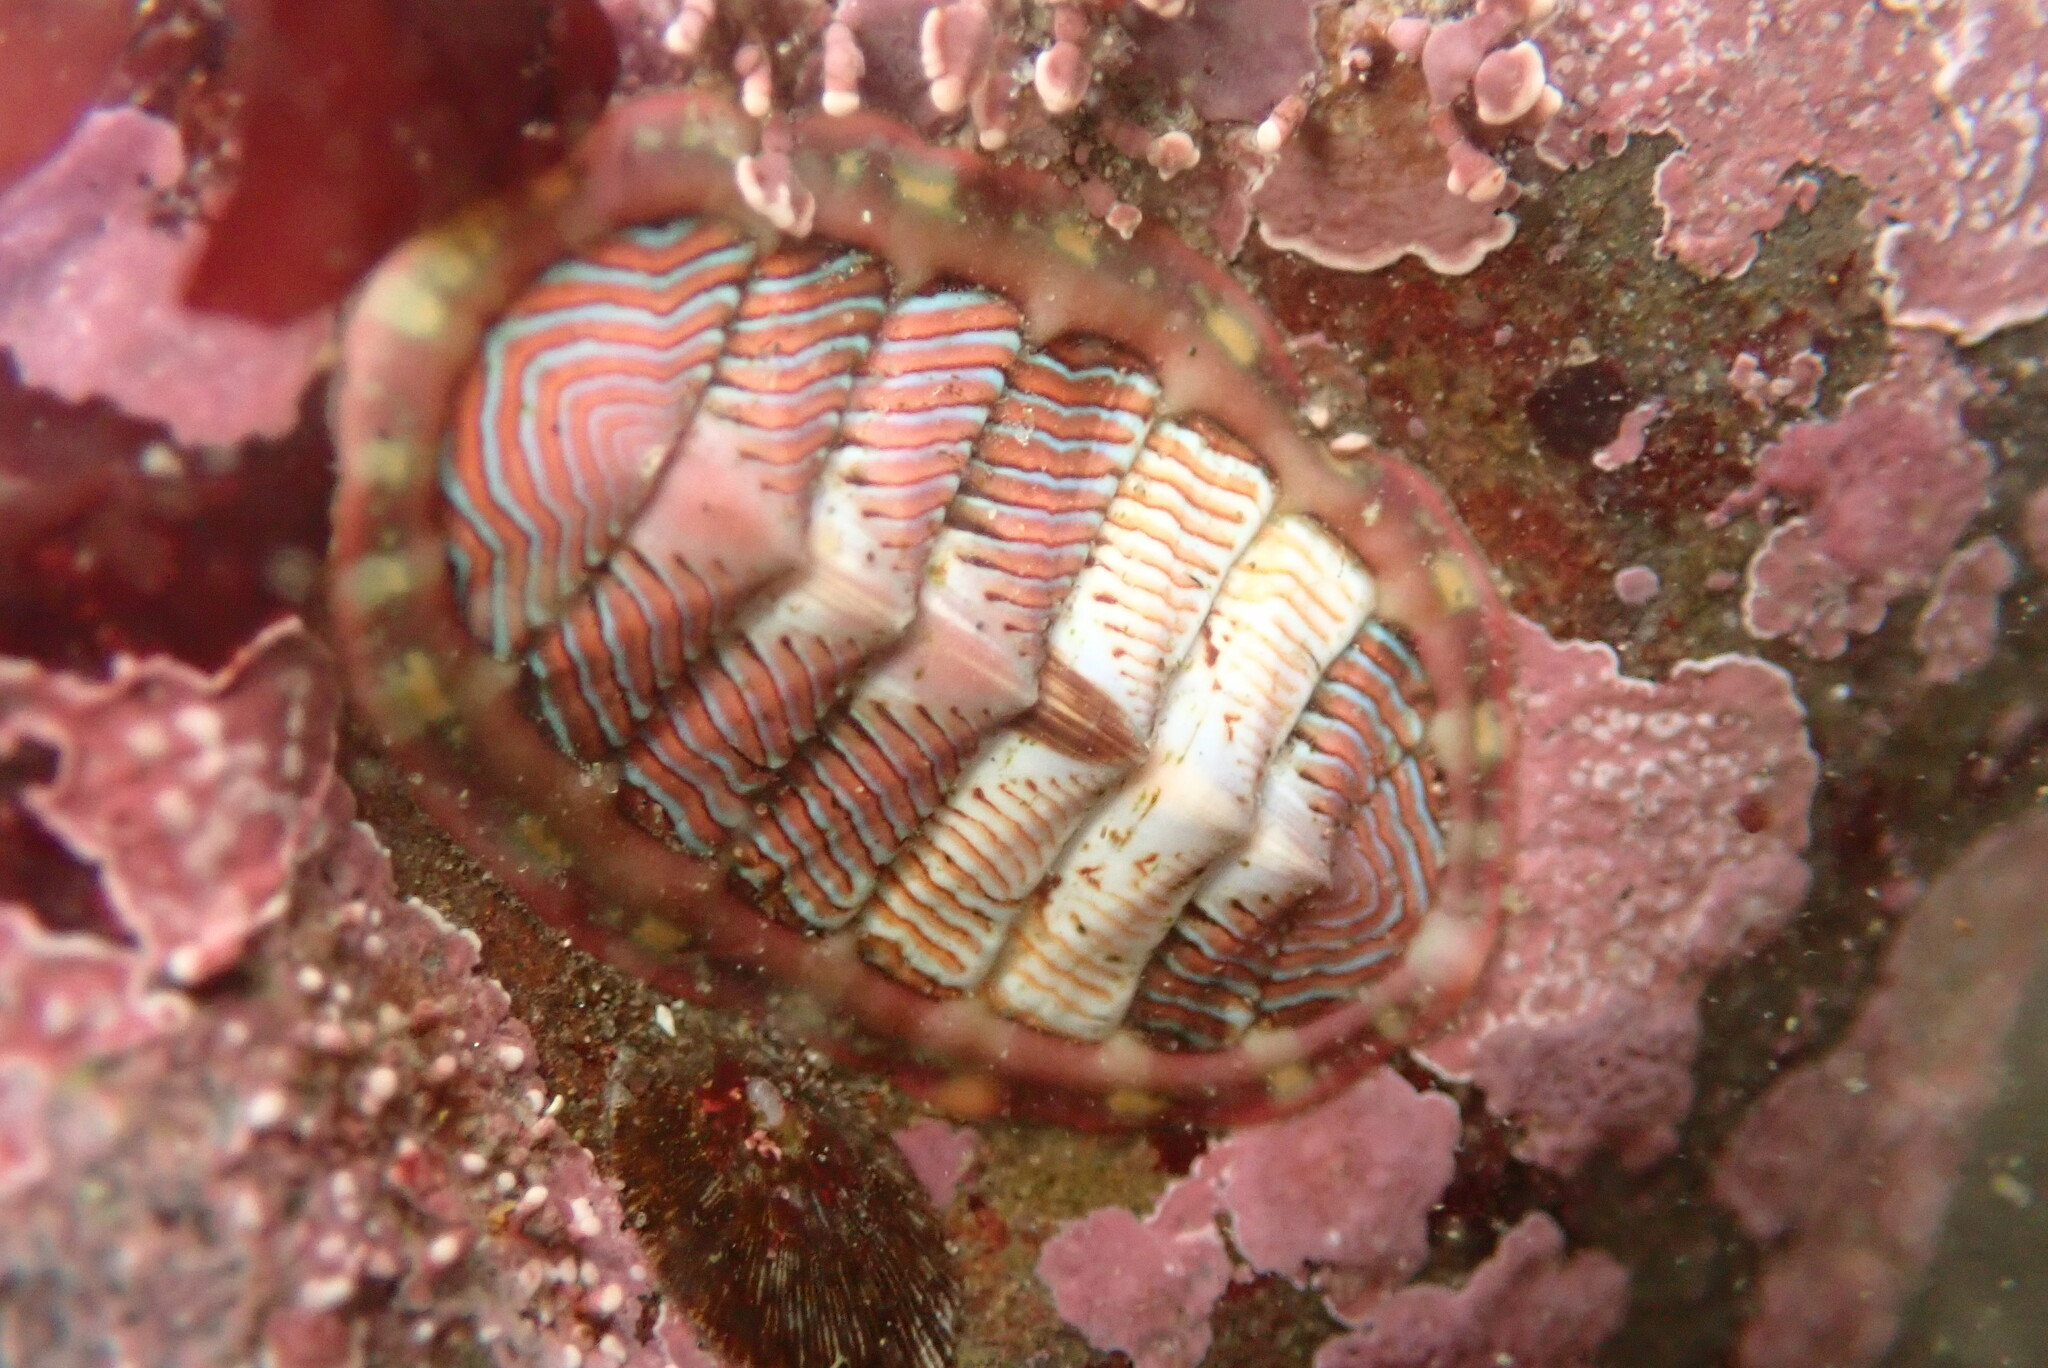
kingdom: Animalia
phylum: Mollusca
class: Polyplacophora
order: Chitonida
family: Tonicellidae
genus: Tonicella
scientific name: Tonicella lineata
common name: Lined chiton
